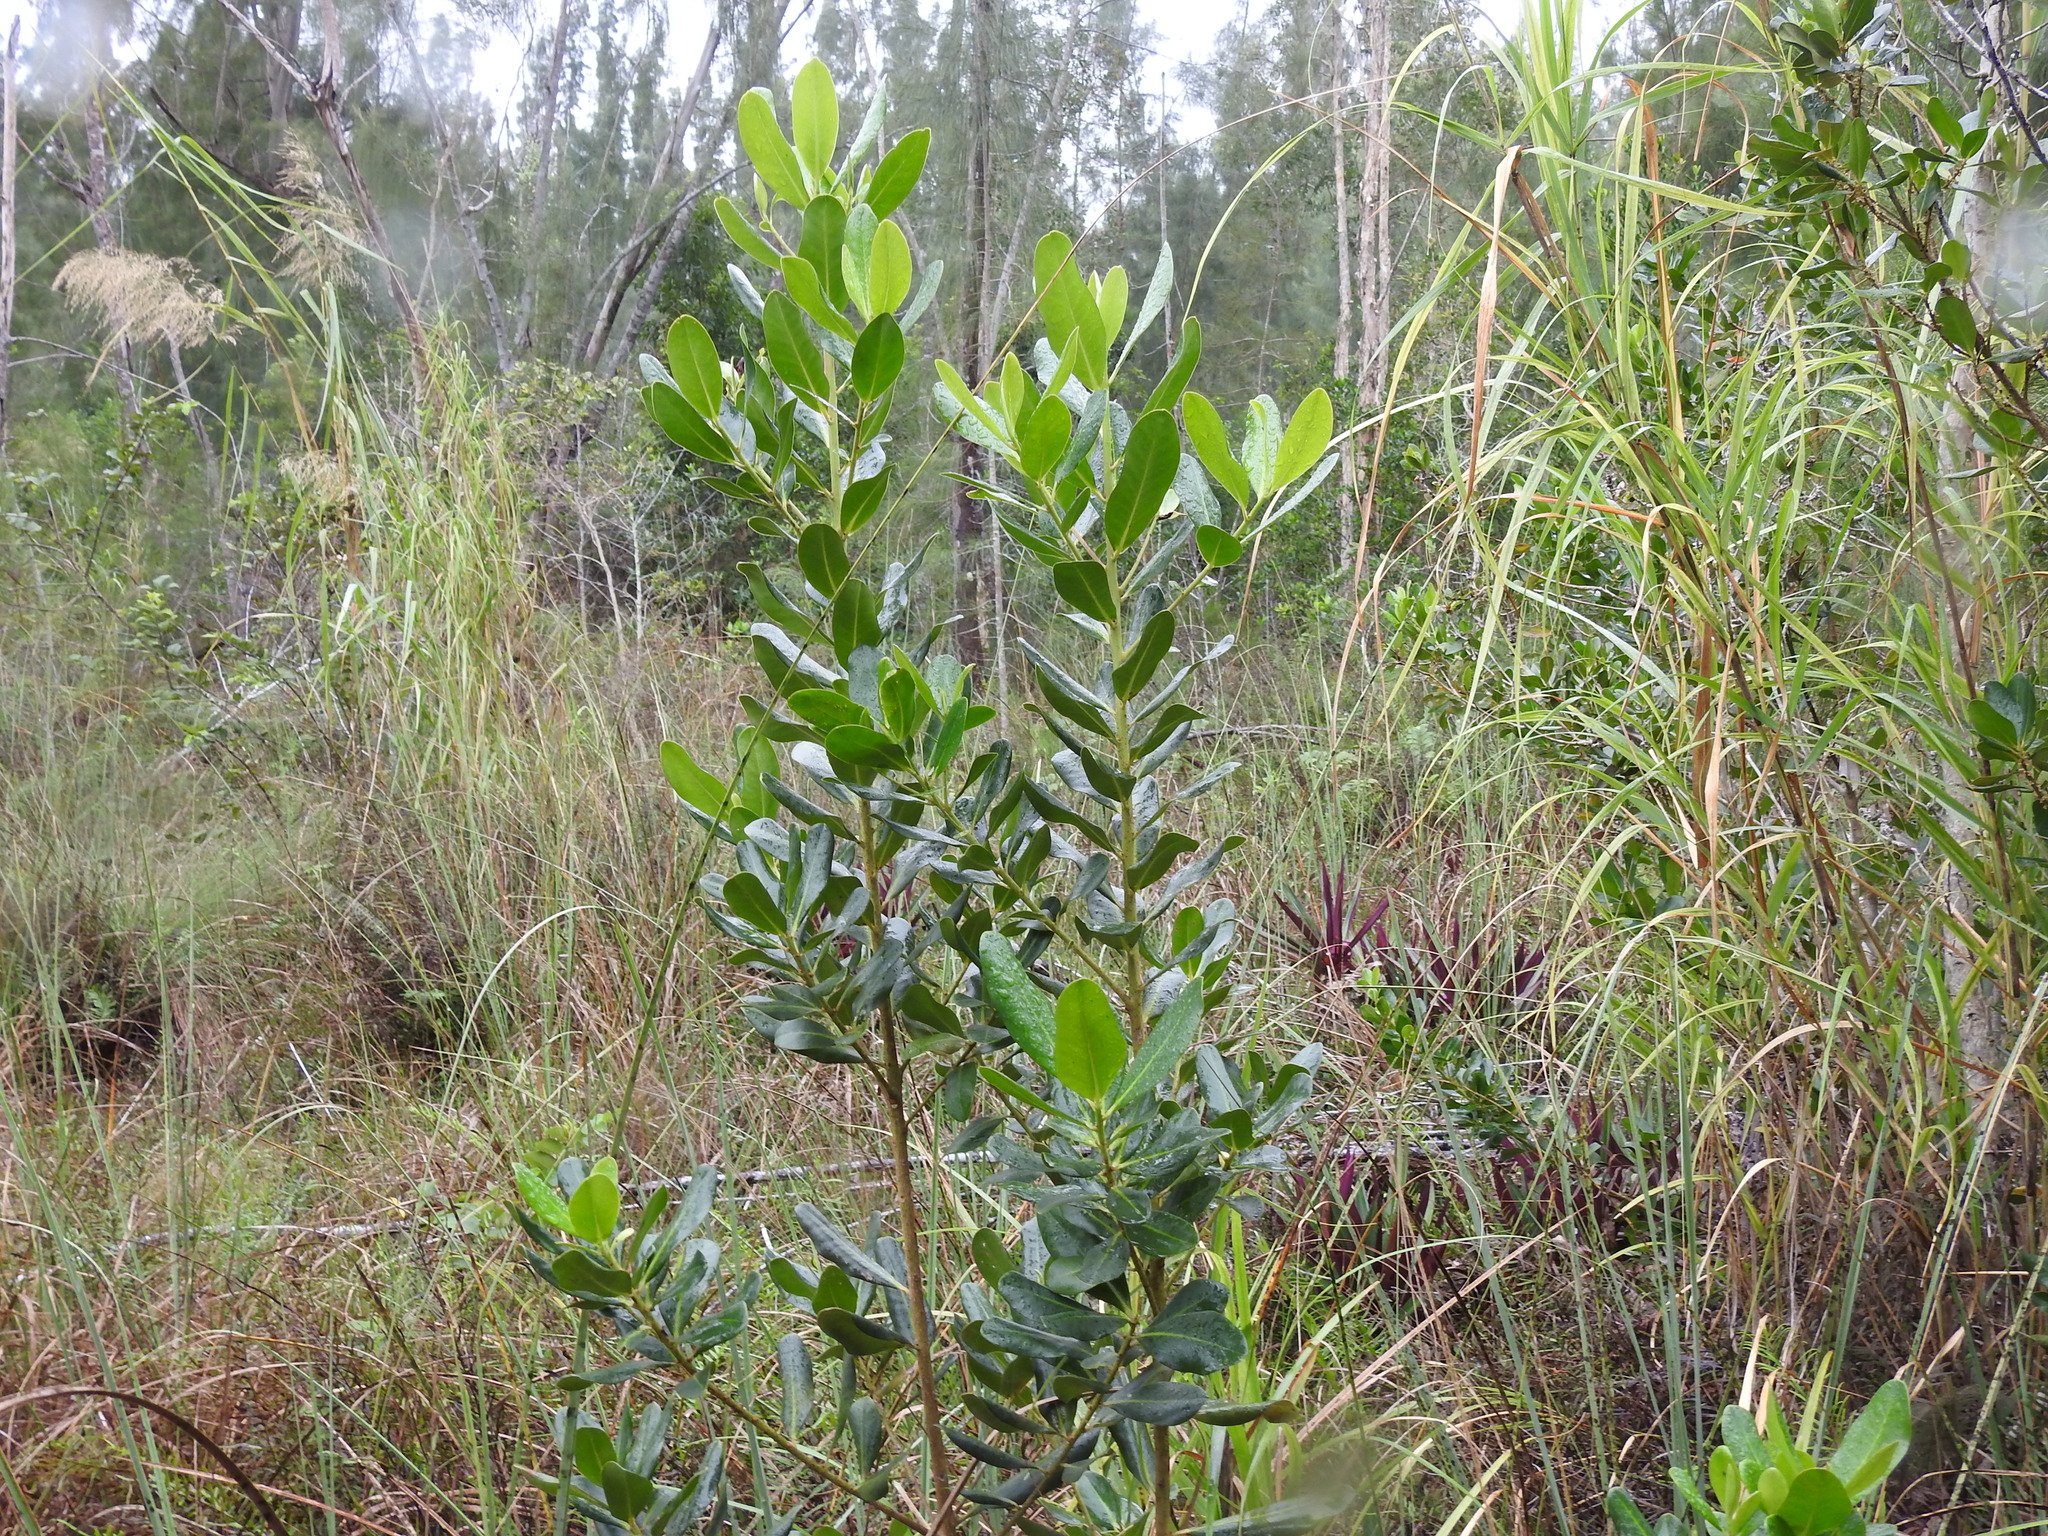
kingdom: Plantae
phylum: Tracheophyta
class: Magnoliopsida
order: Ericales
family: Primulaceae
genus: Myrsine
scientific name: Myrsine floridana
